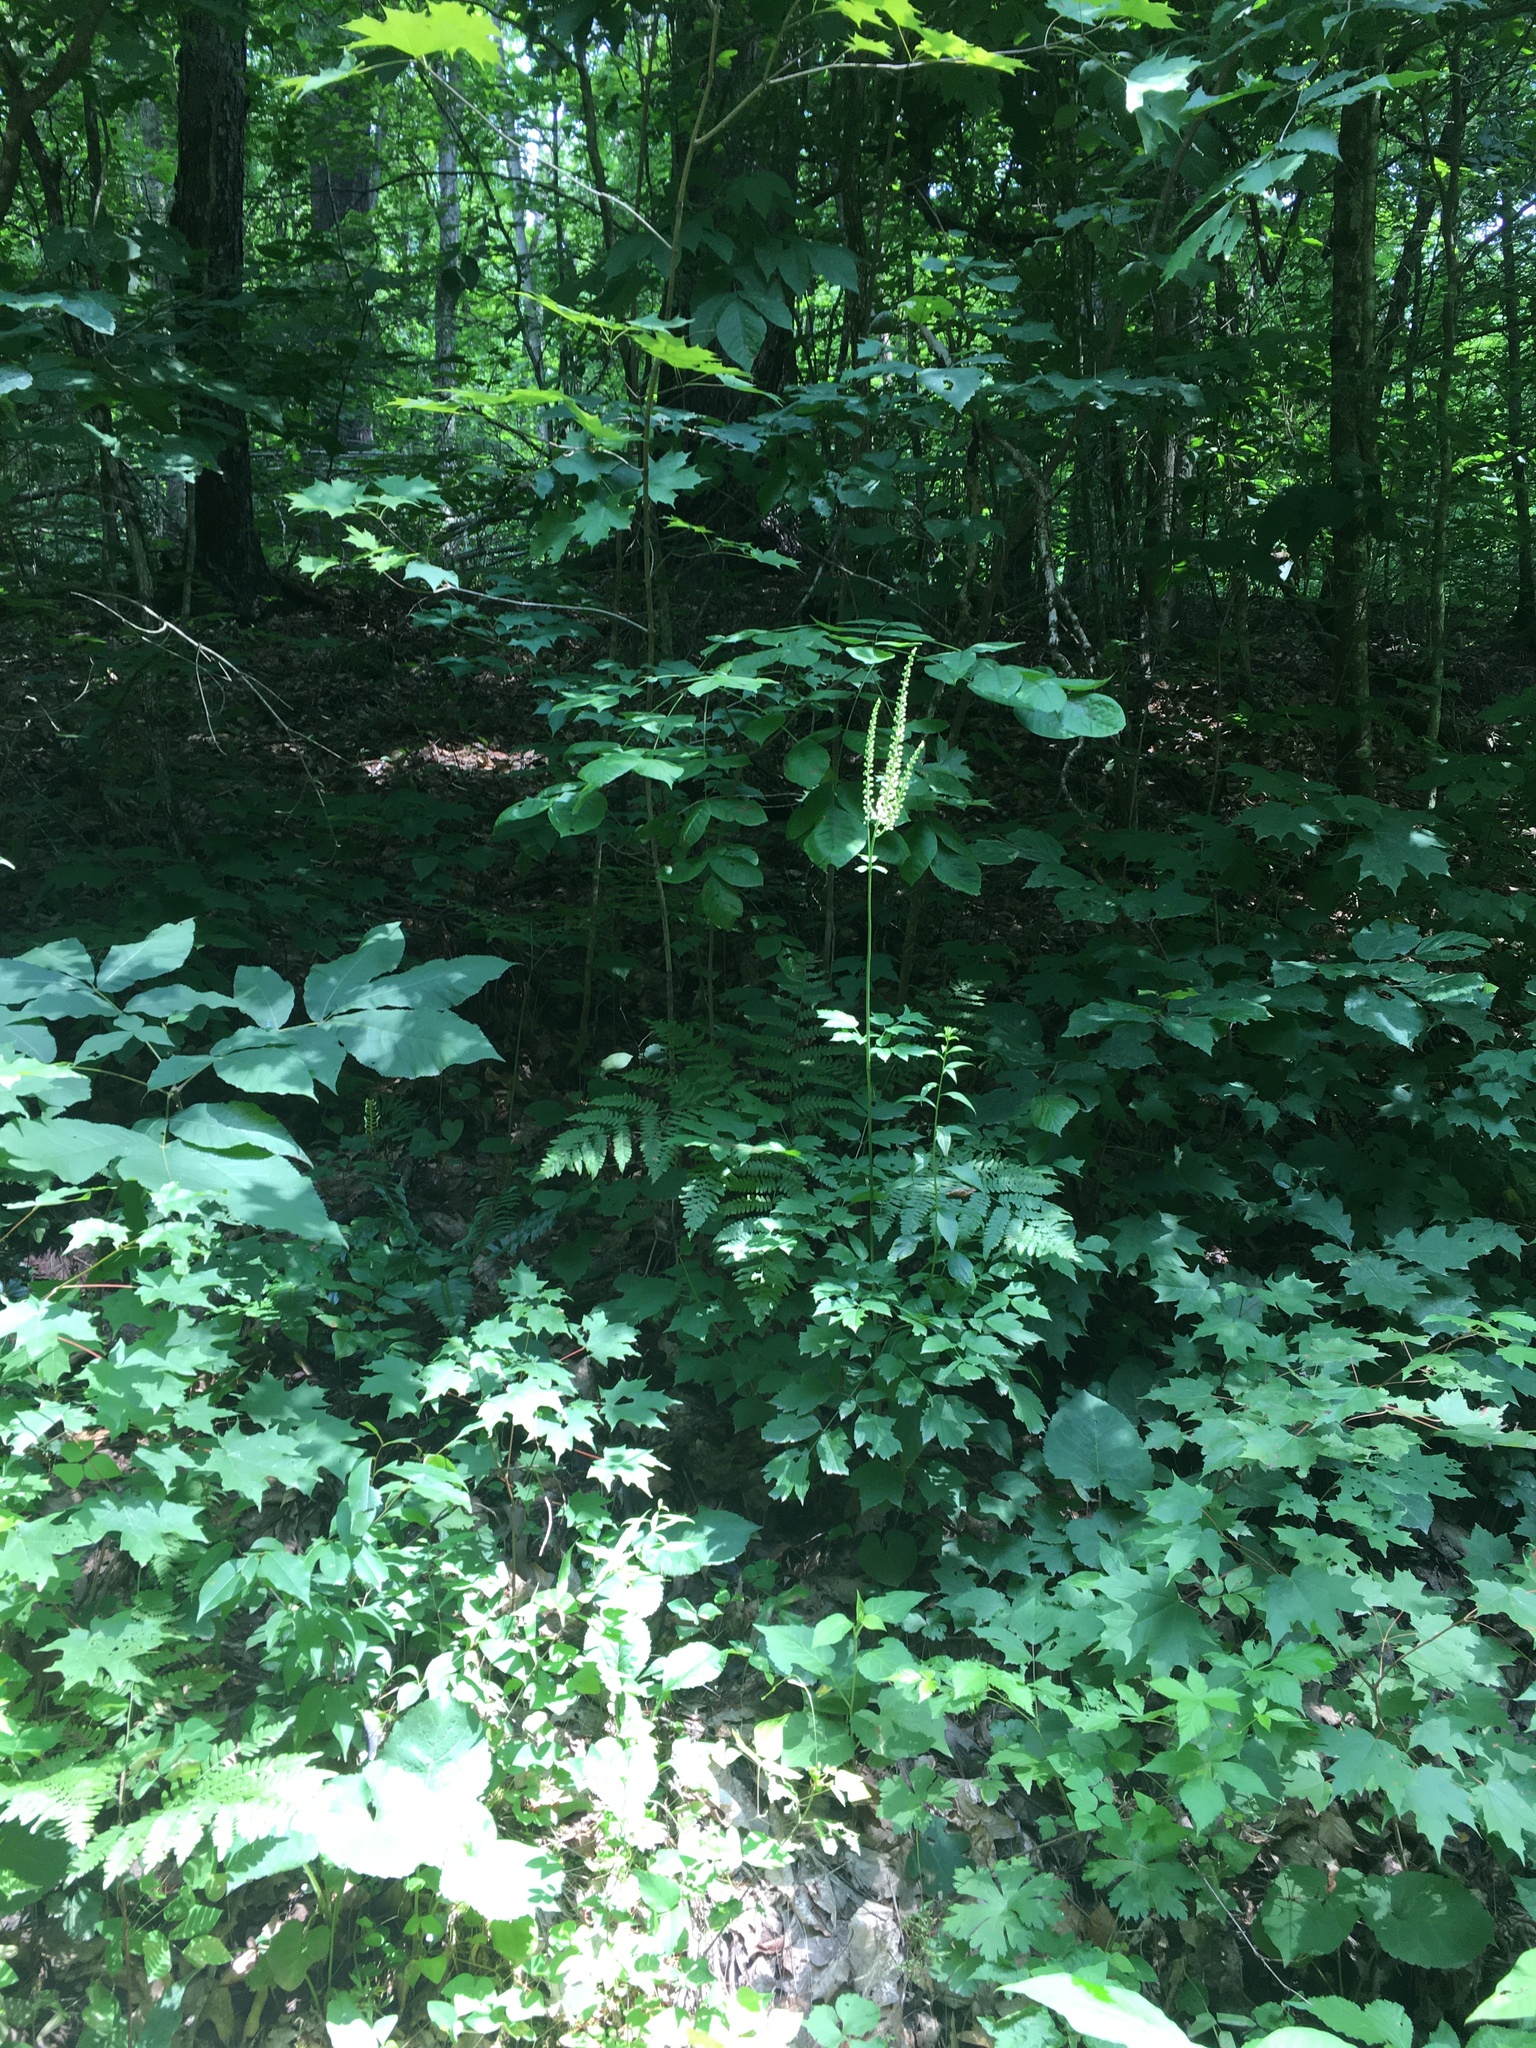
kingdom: Plantae
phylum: Tracheophyta
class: Magnoliopsida
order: Ranunculales
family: Ranunculaceae
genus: Actaea
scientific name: Actaea racemosa
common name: Black cohosh
